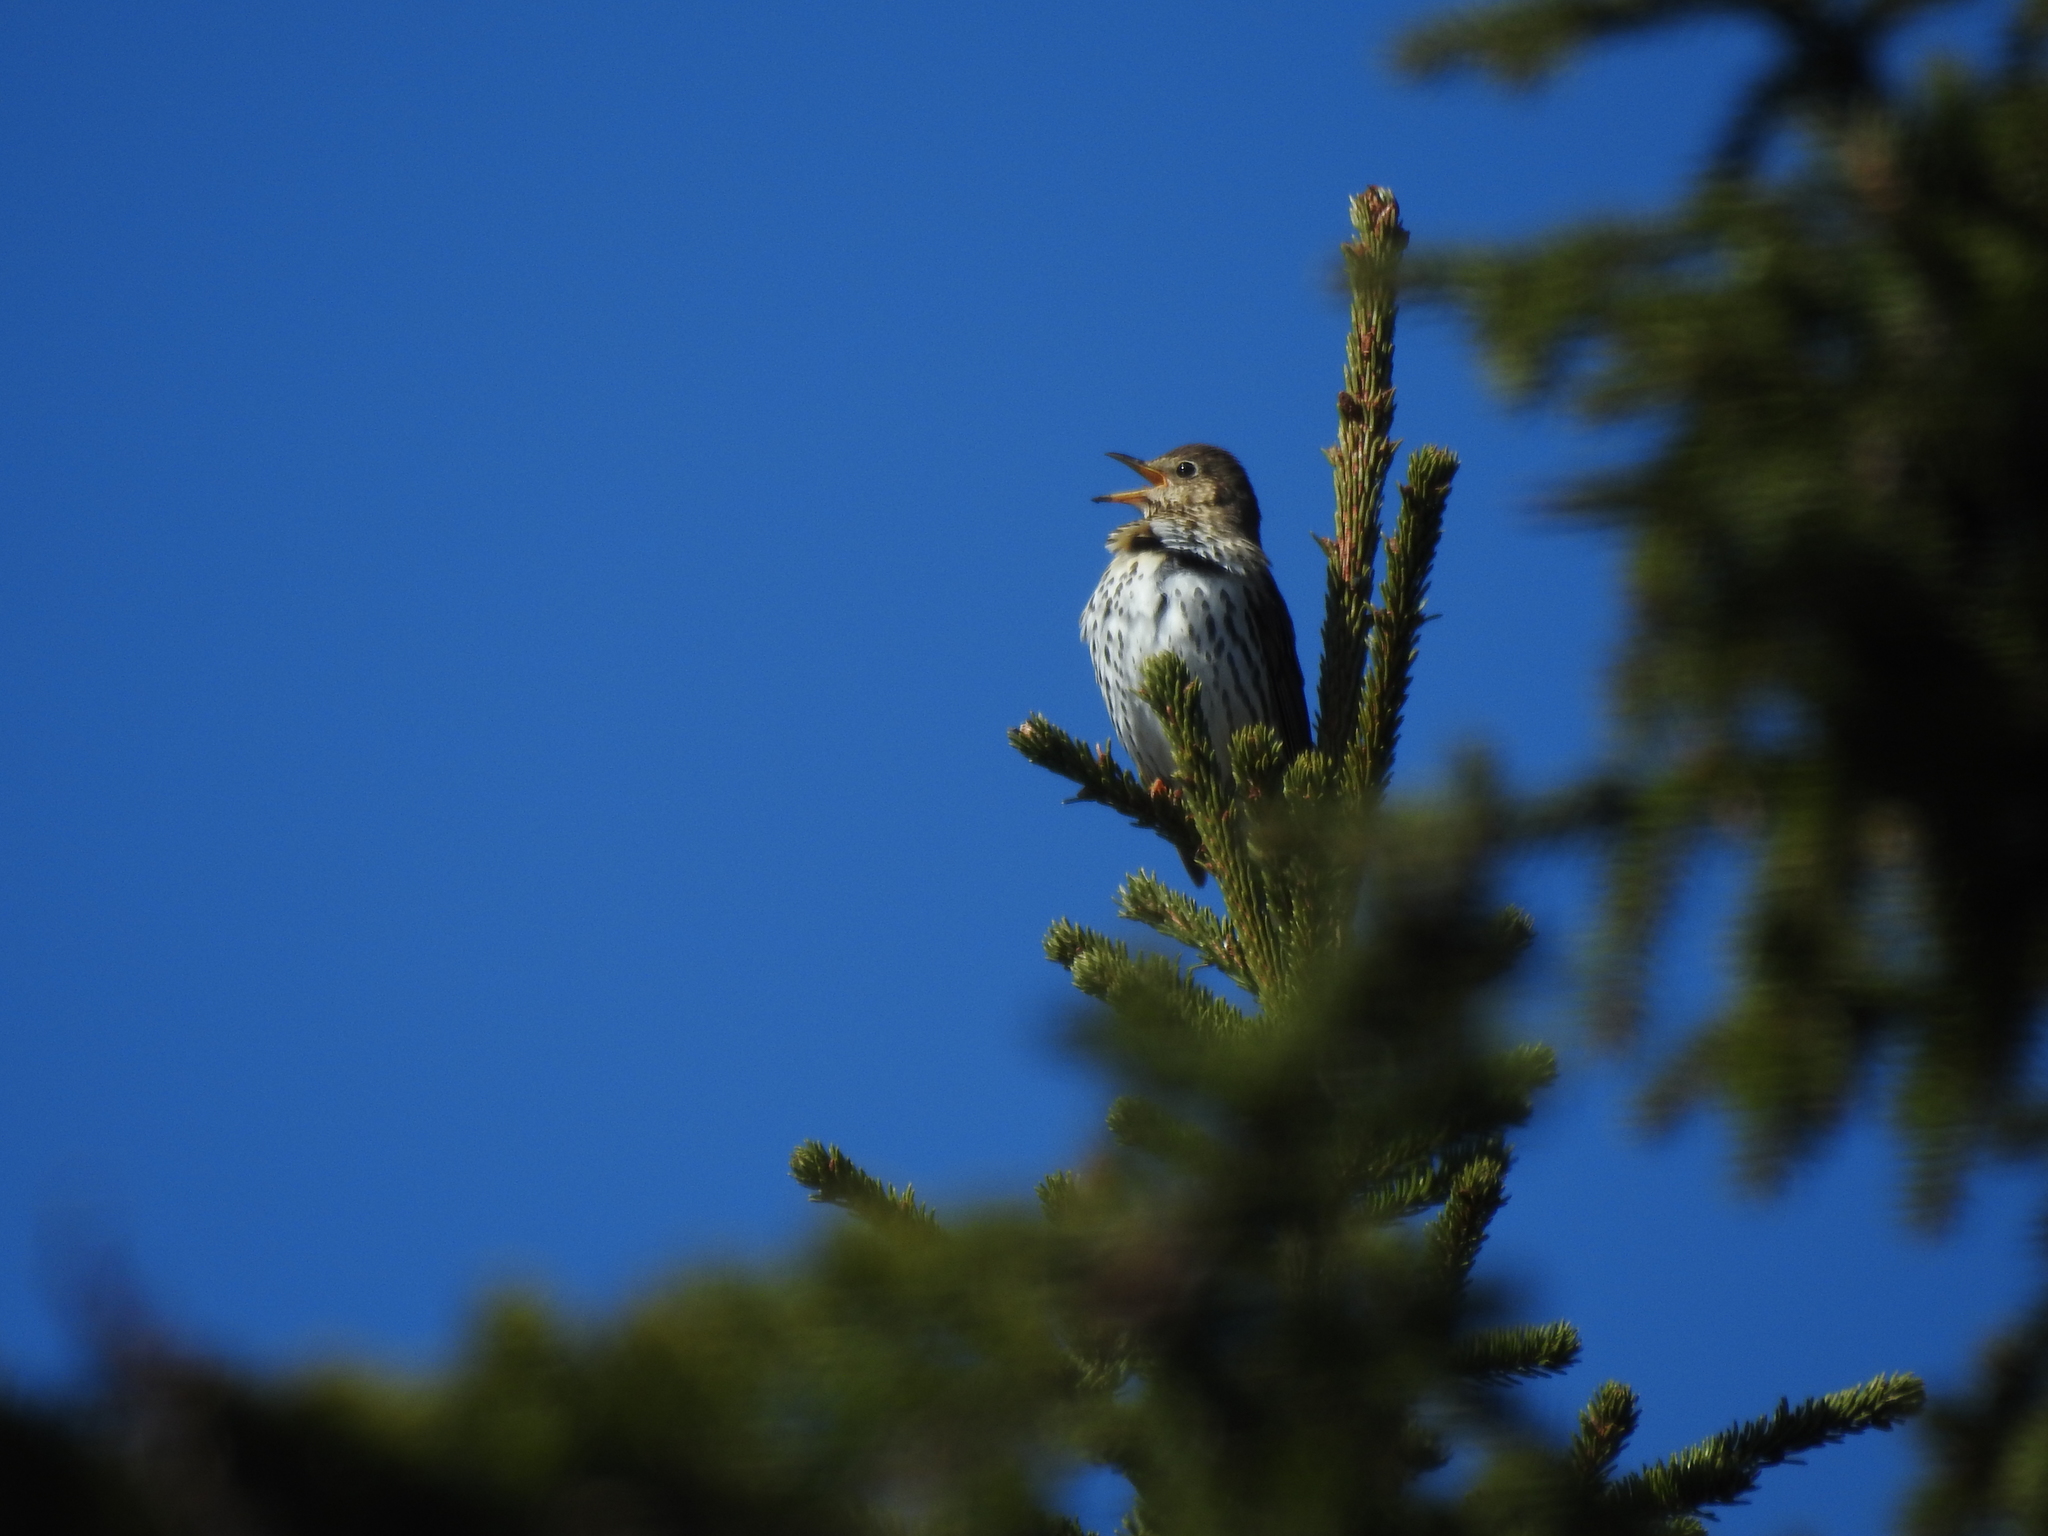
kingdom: Animalia
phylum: Chordata
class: Aves
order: Passeriformes
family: Turdidae
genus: Turdus
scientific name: Turdus philomelos
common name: Song thrush
